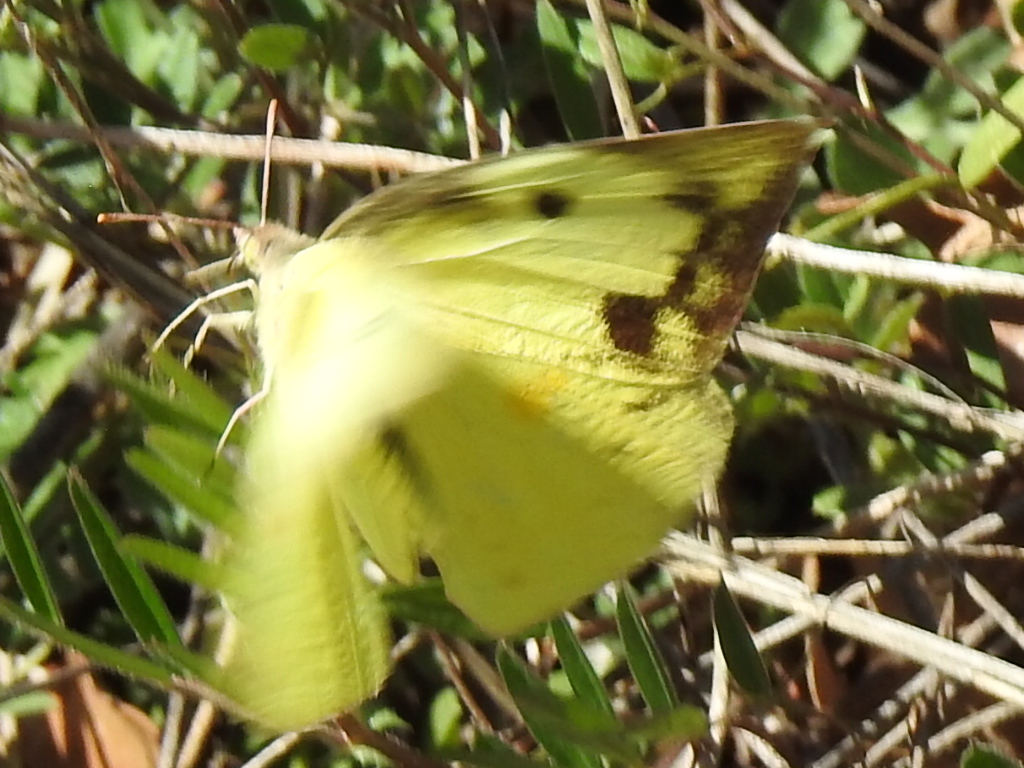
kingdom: Animalia
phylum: Arthropoda
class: Insecta
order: Lepidoptera
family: Pieridae
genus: Zerene
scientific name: Zerene cesonia
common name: Southern dogface
